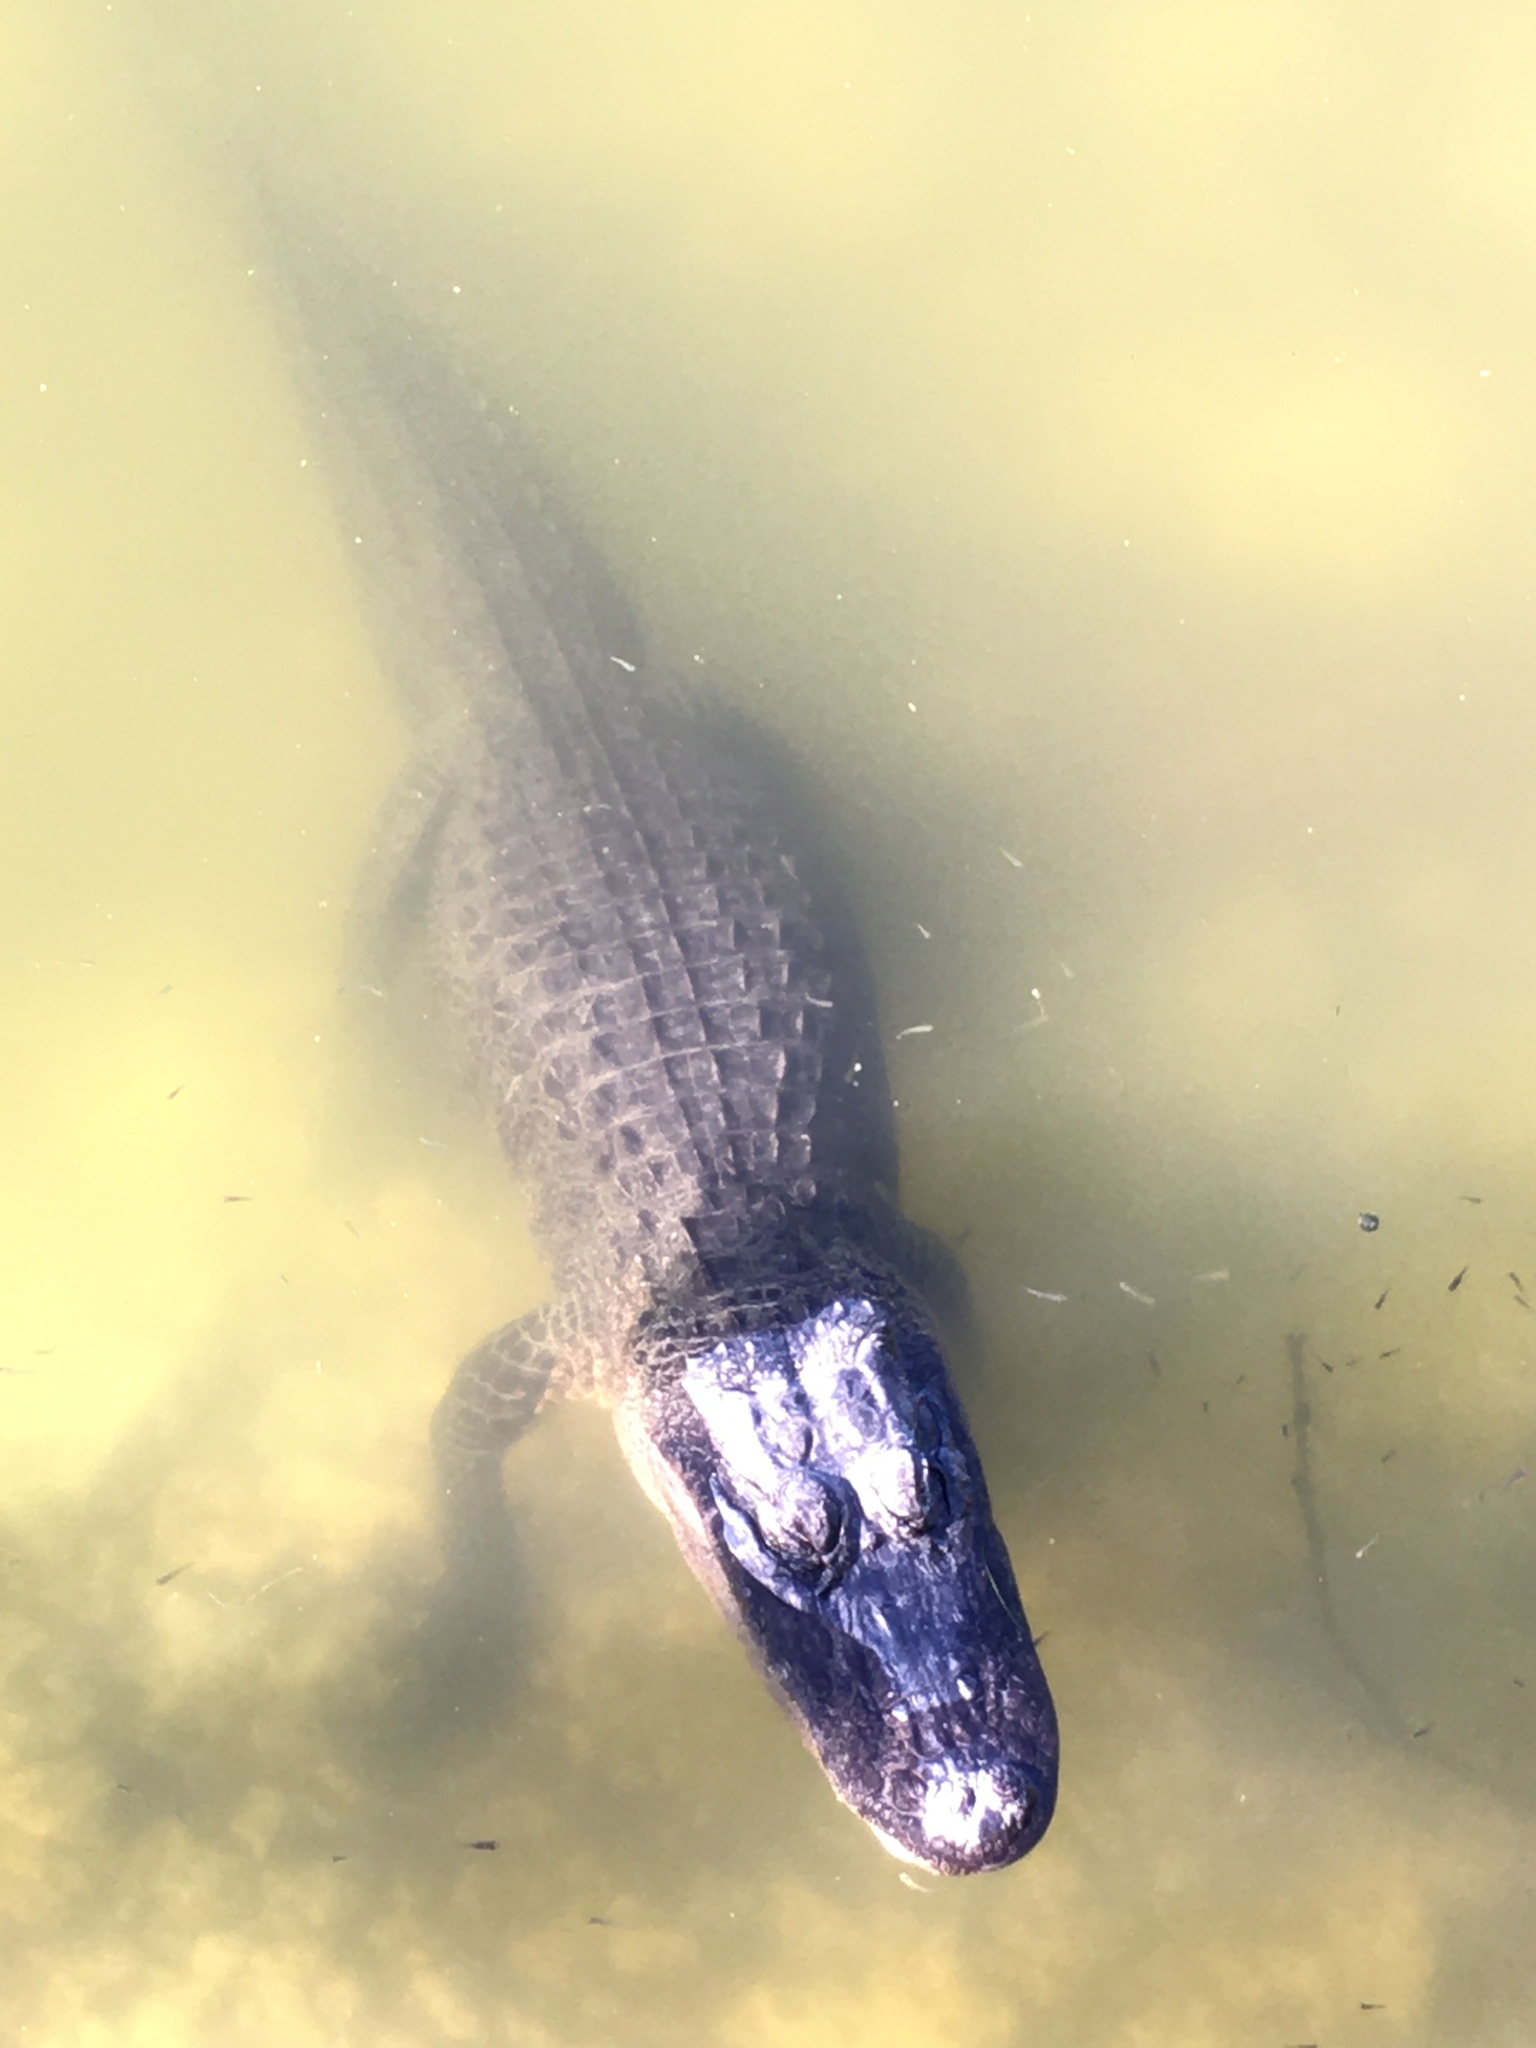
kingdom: Animalia
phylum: Chordata
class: Crocodylia
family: Alligatoridae
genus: Alligator
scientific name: Alligator mississippiensis
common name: American alligator
